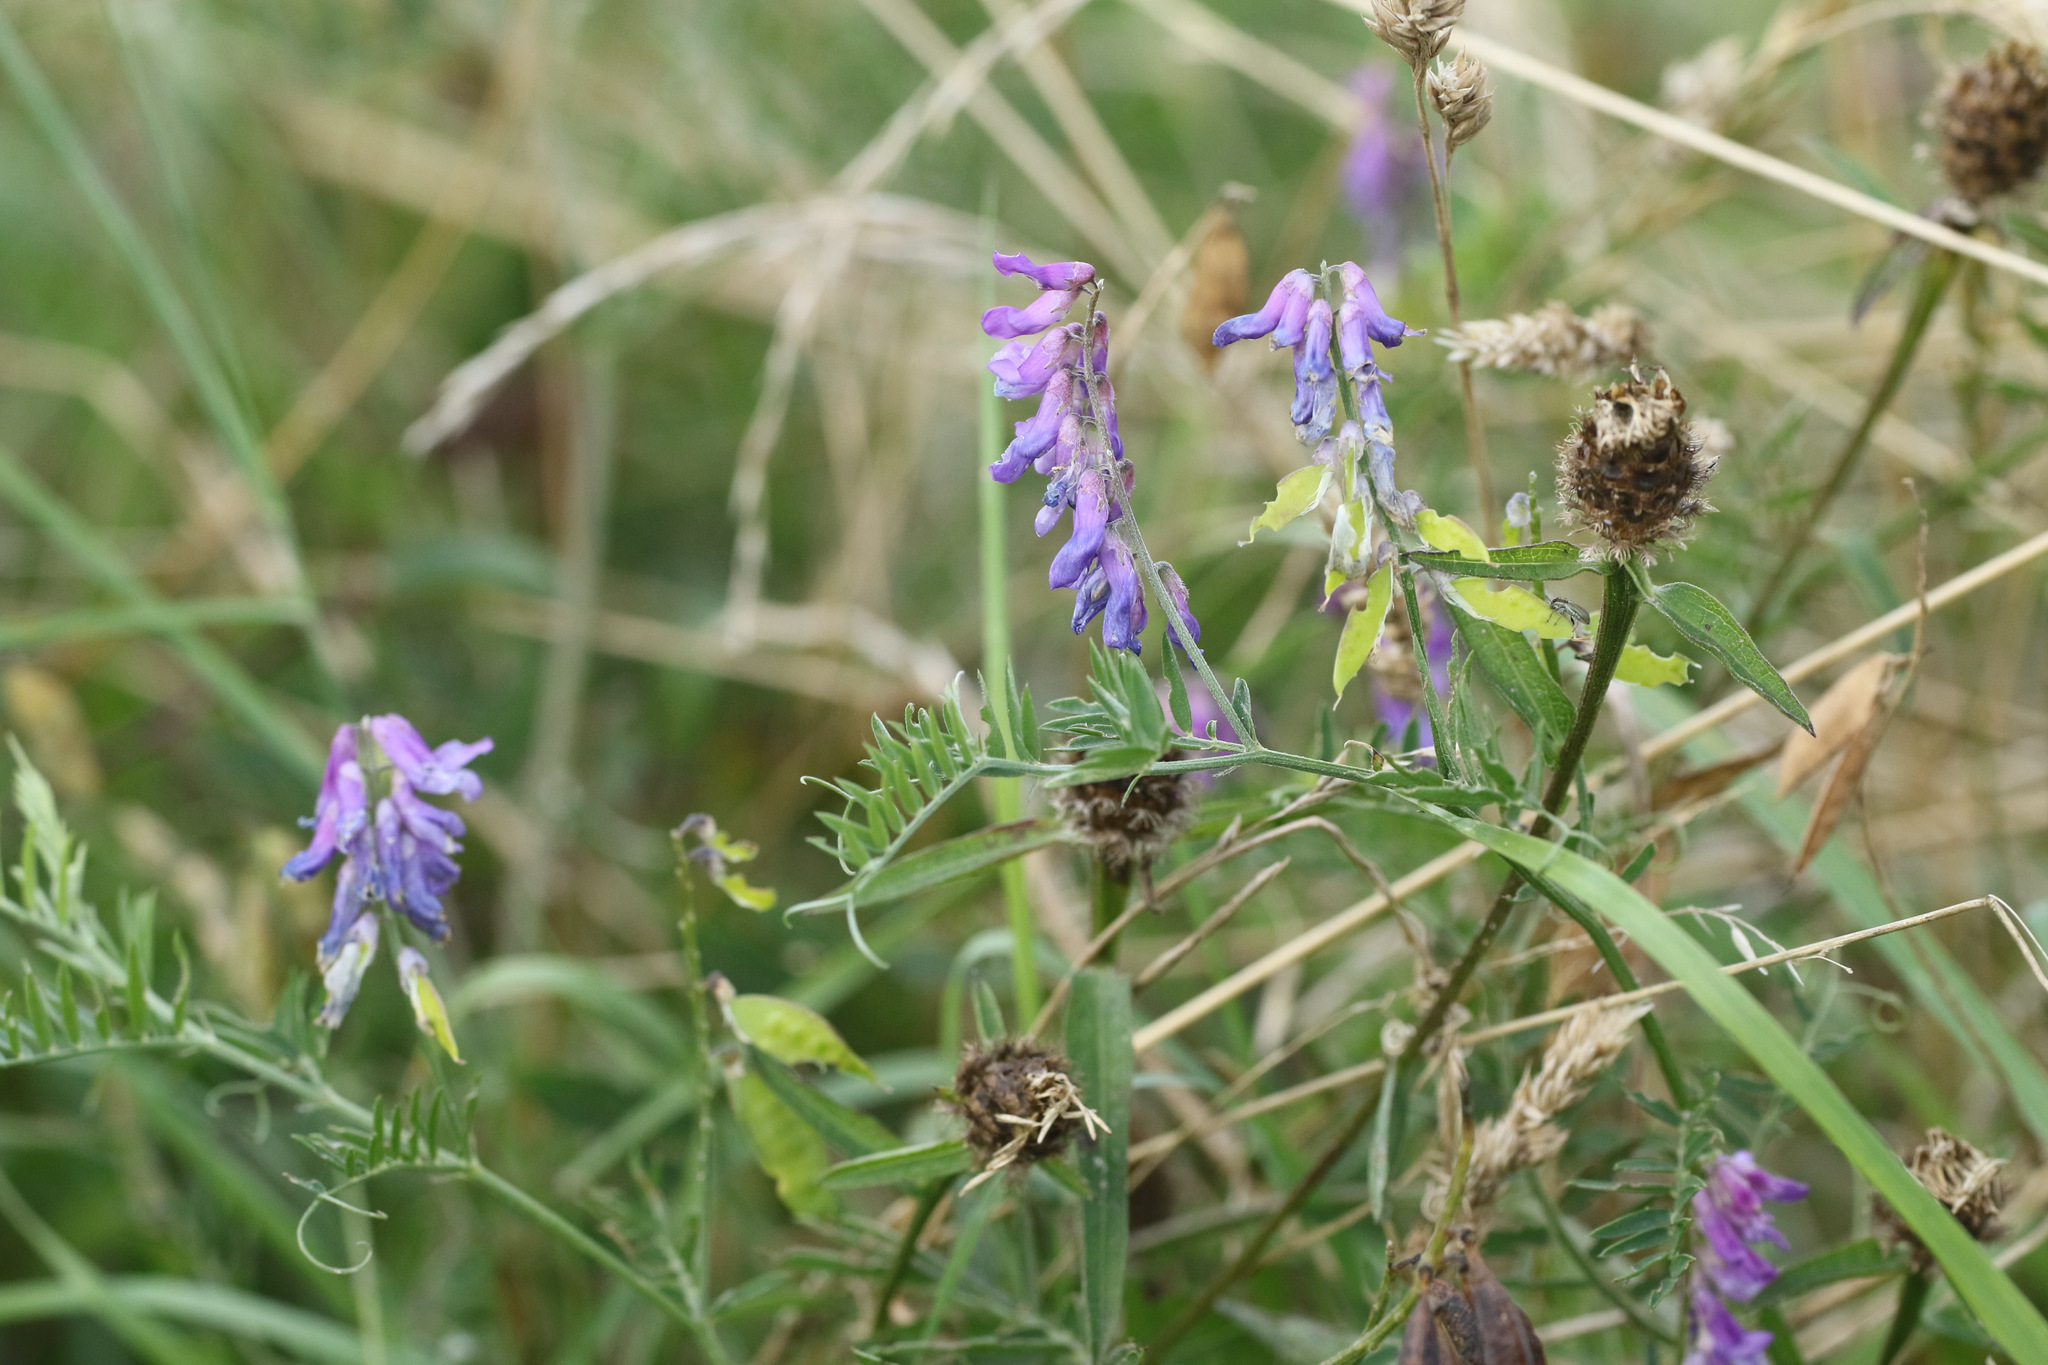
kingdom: Plantae
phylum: Tracheophyta
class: Magnoliopsida
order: Fabales
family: Fabaceae
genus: Vicia
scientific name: Vicia cracca
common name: Bird vetch
